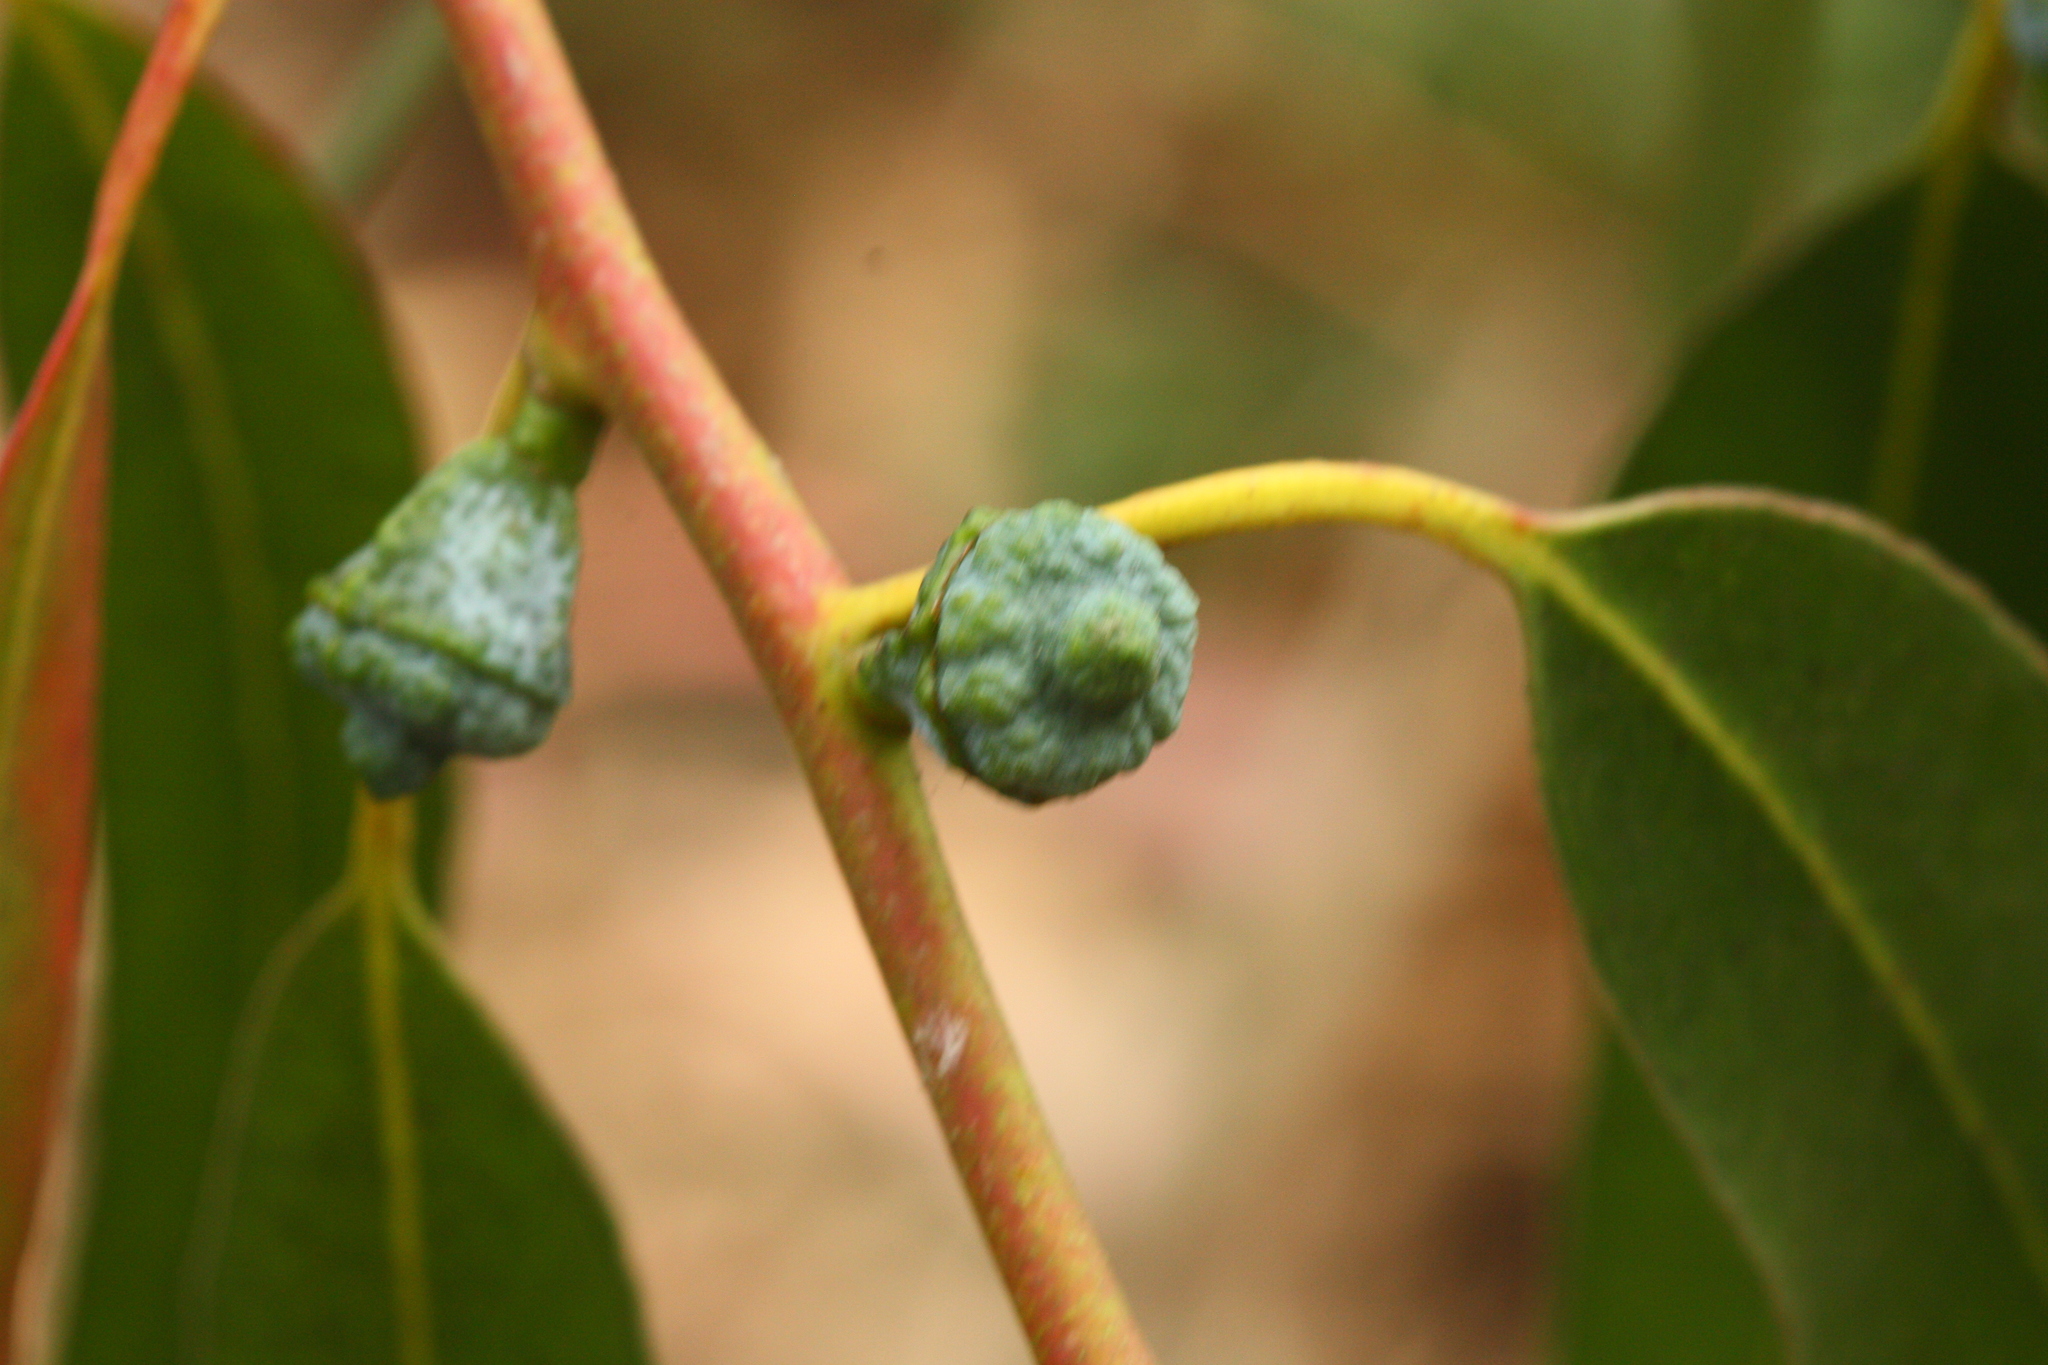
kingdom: Plantae
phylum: Tracheophyta
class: Magnoliopsida
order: Myrtales
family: Myrtaceae
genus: Eucalyptus
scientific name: Eucalyptus globulus
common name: Southern blue-gum
